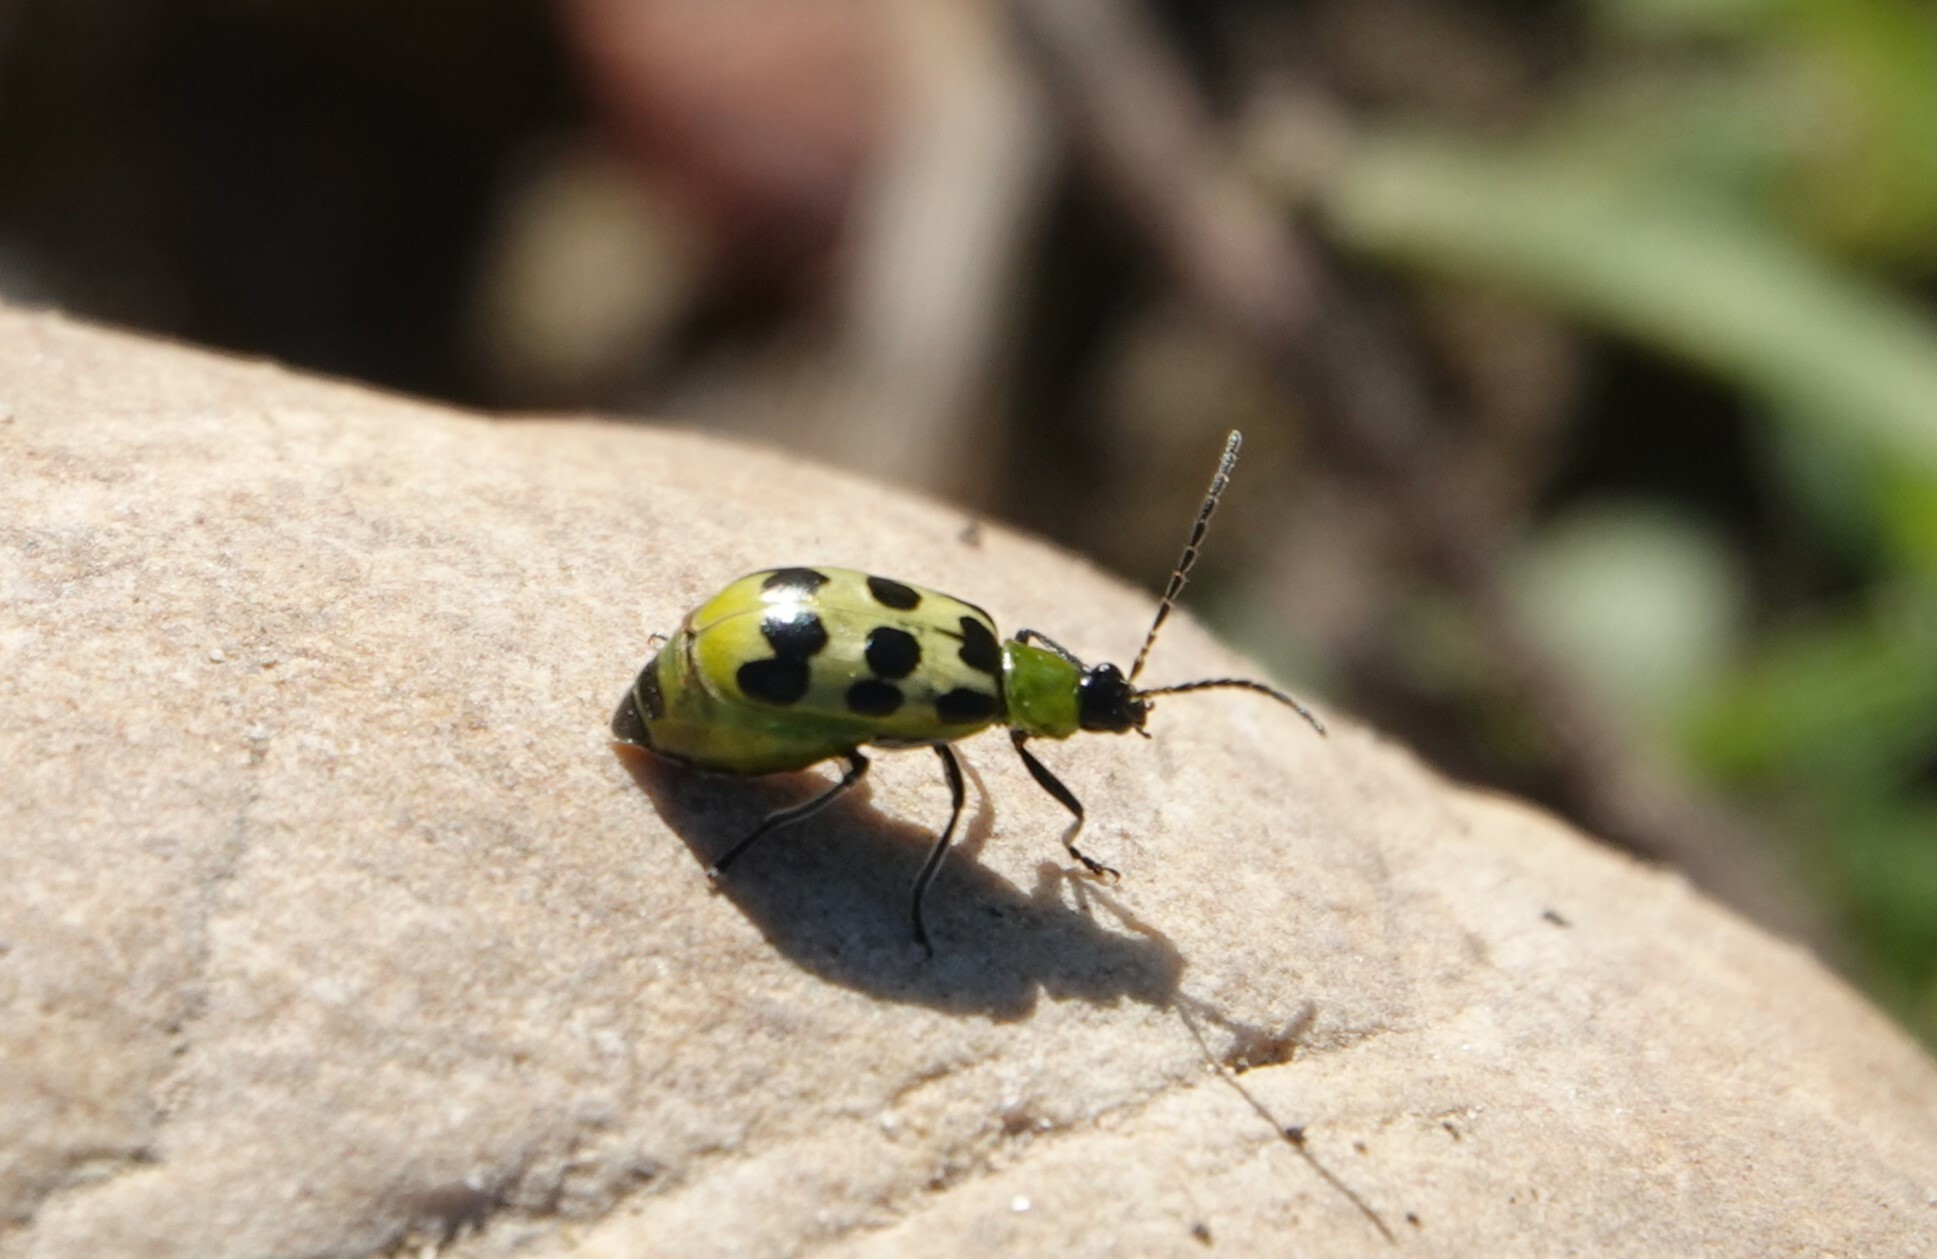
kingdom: Animalia
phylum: Arthropoda
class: Insecta
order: Coleoptera
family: Chrysomelidae
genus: Diabrotica
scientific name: Diabrotica undecimpunctata
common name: Spotted cucumber beetle
